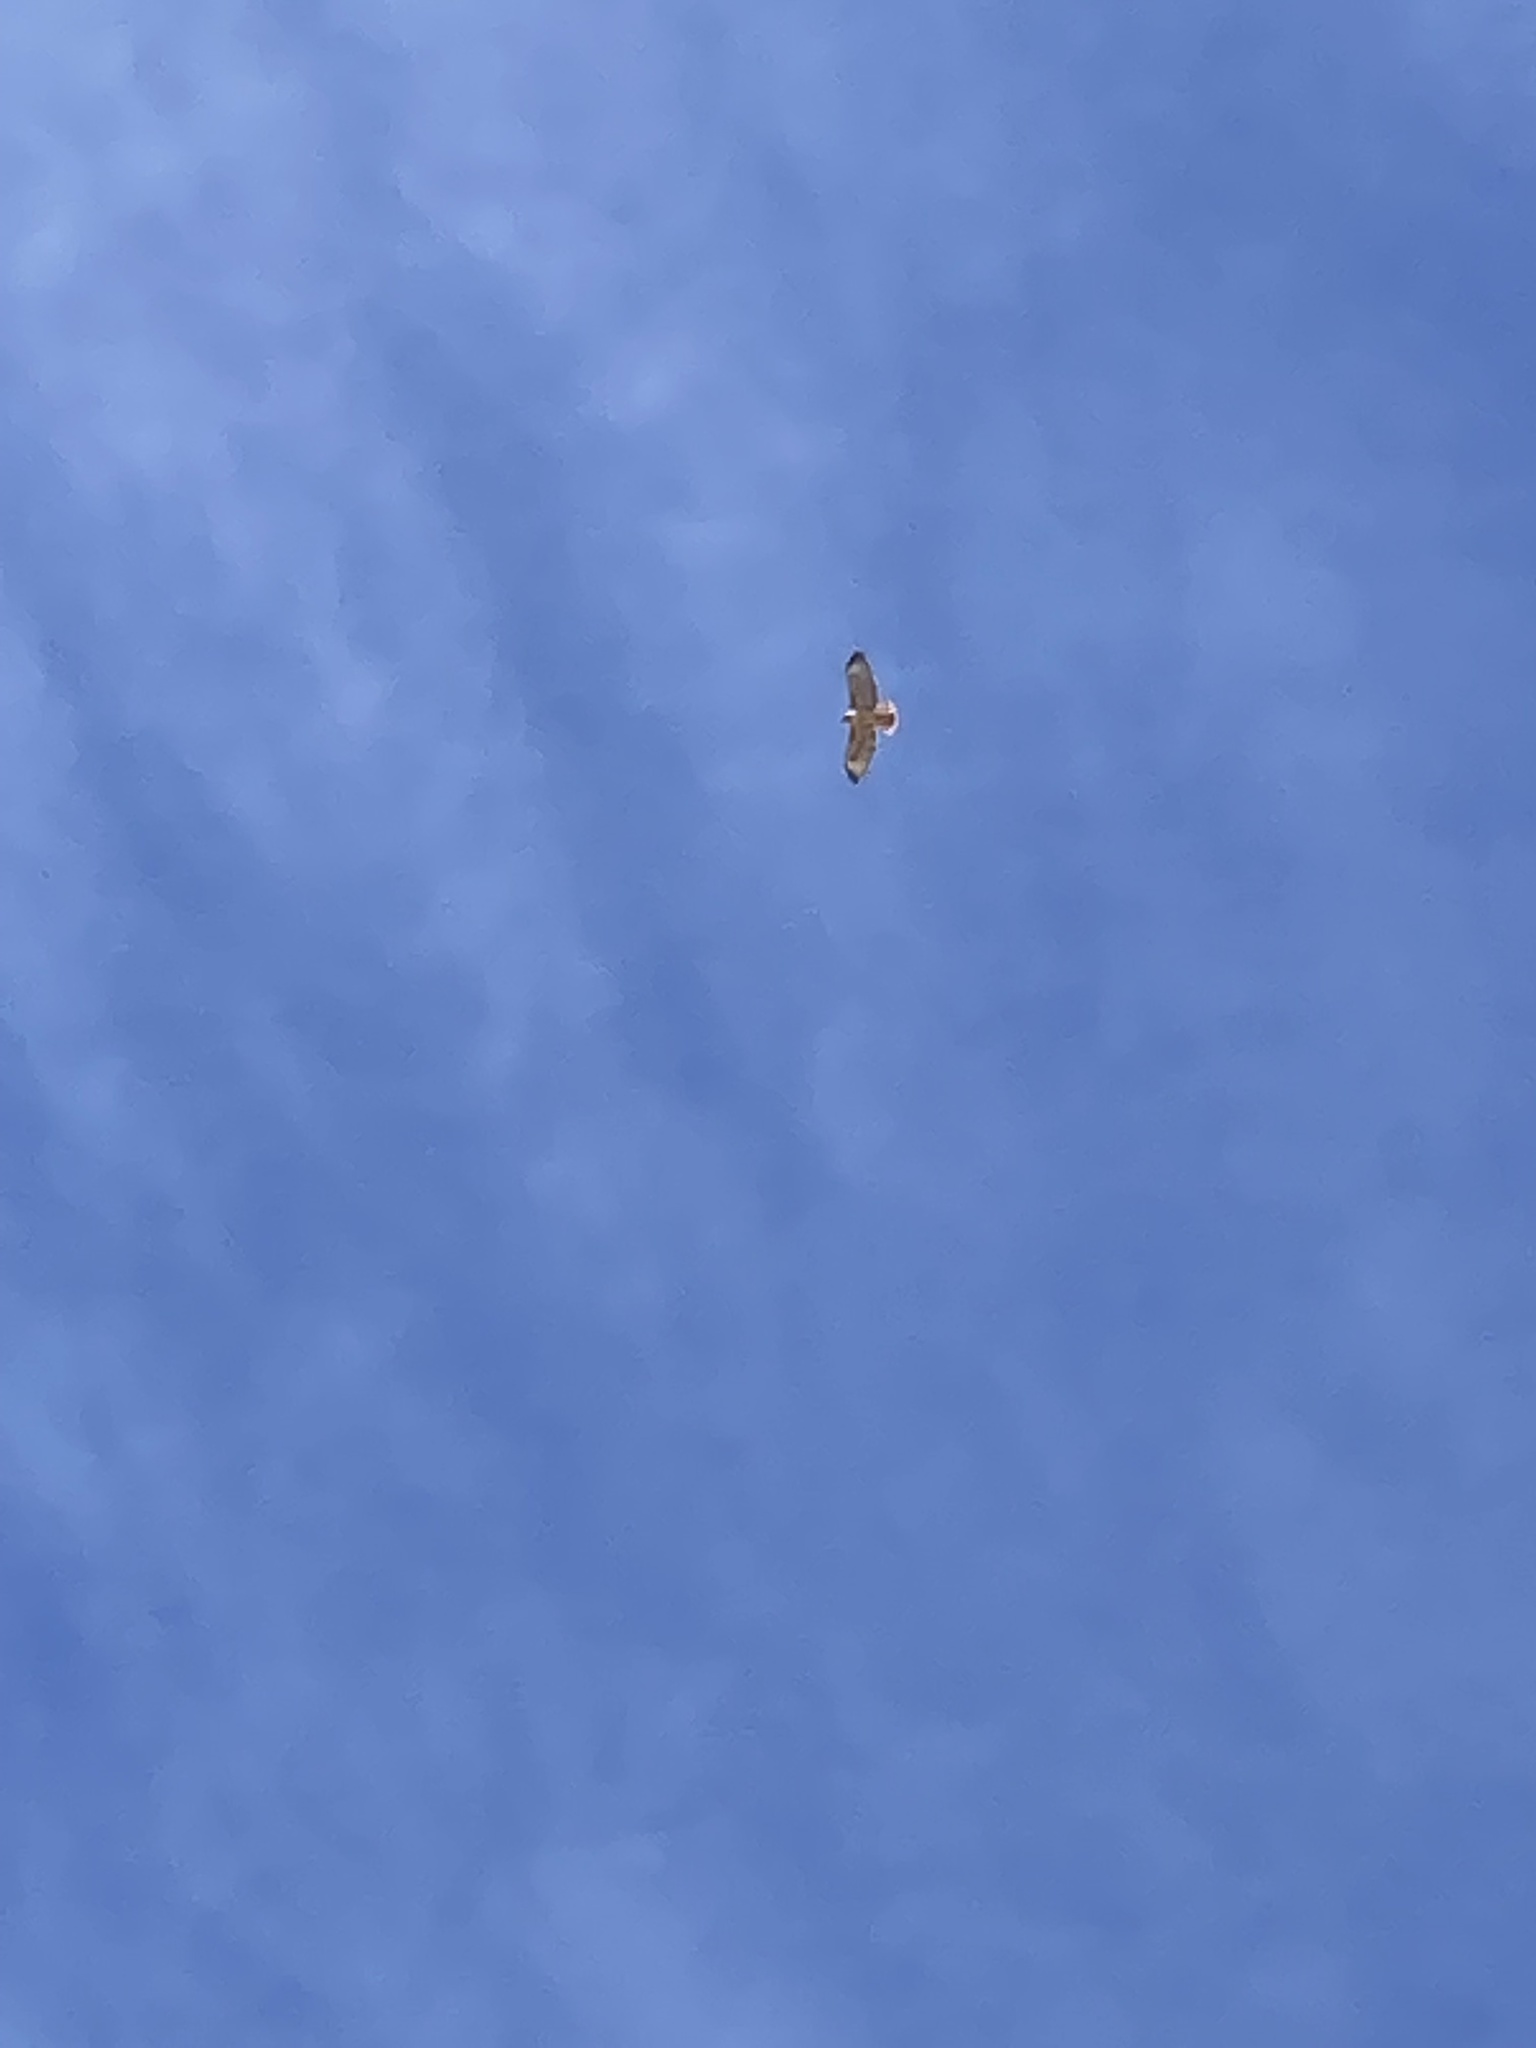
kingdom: Animalia
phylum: Chordata
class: Aves
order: Accipitriformes
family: Accipitridae
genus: Buteo
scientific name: Buteo jamaicensis
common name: Red-tailed hawk
